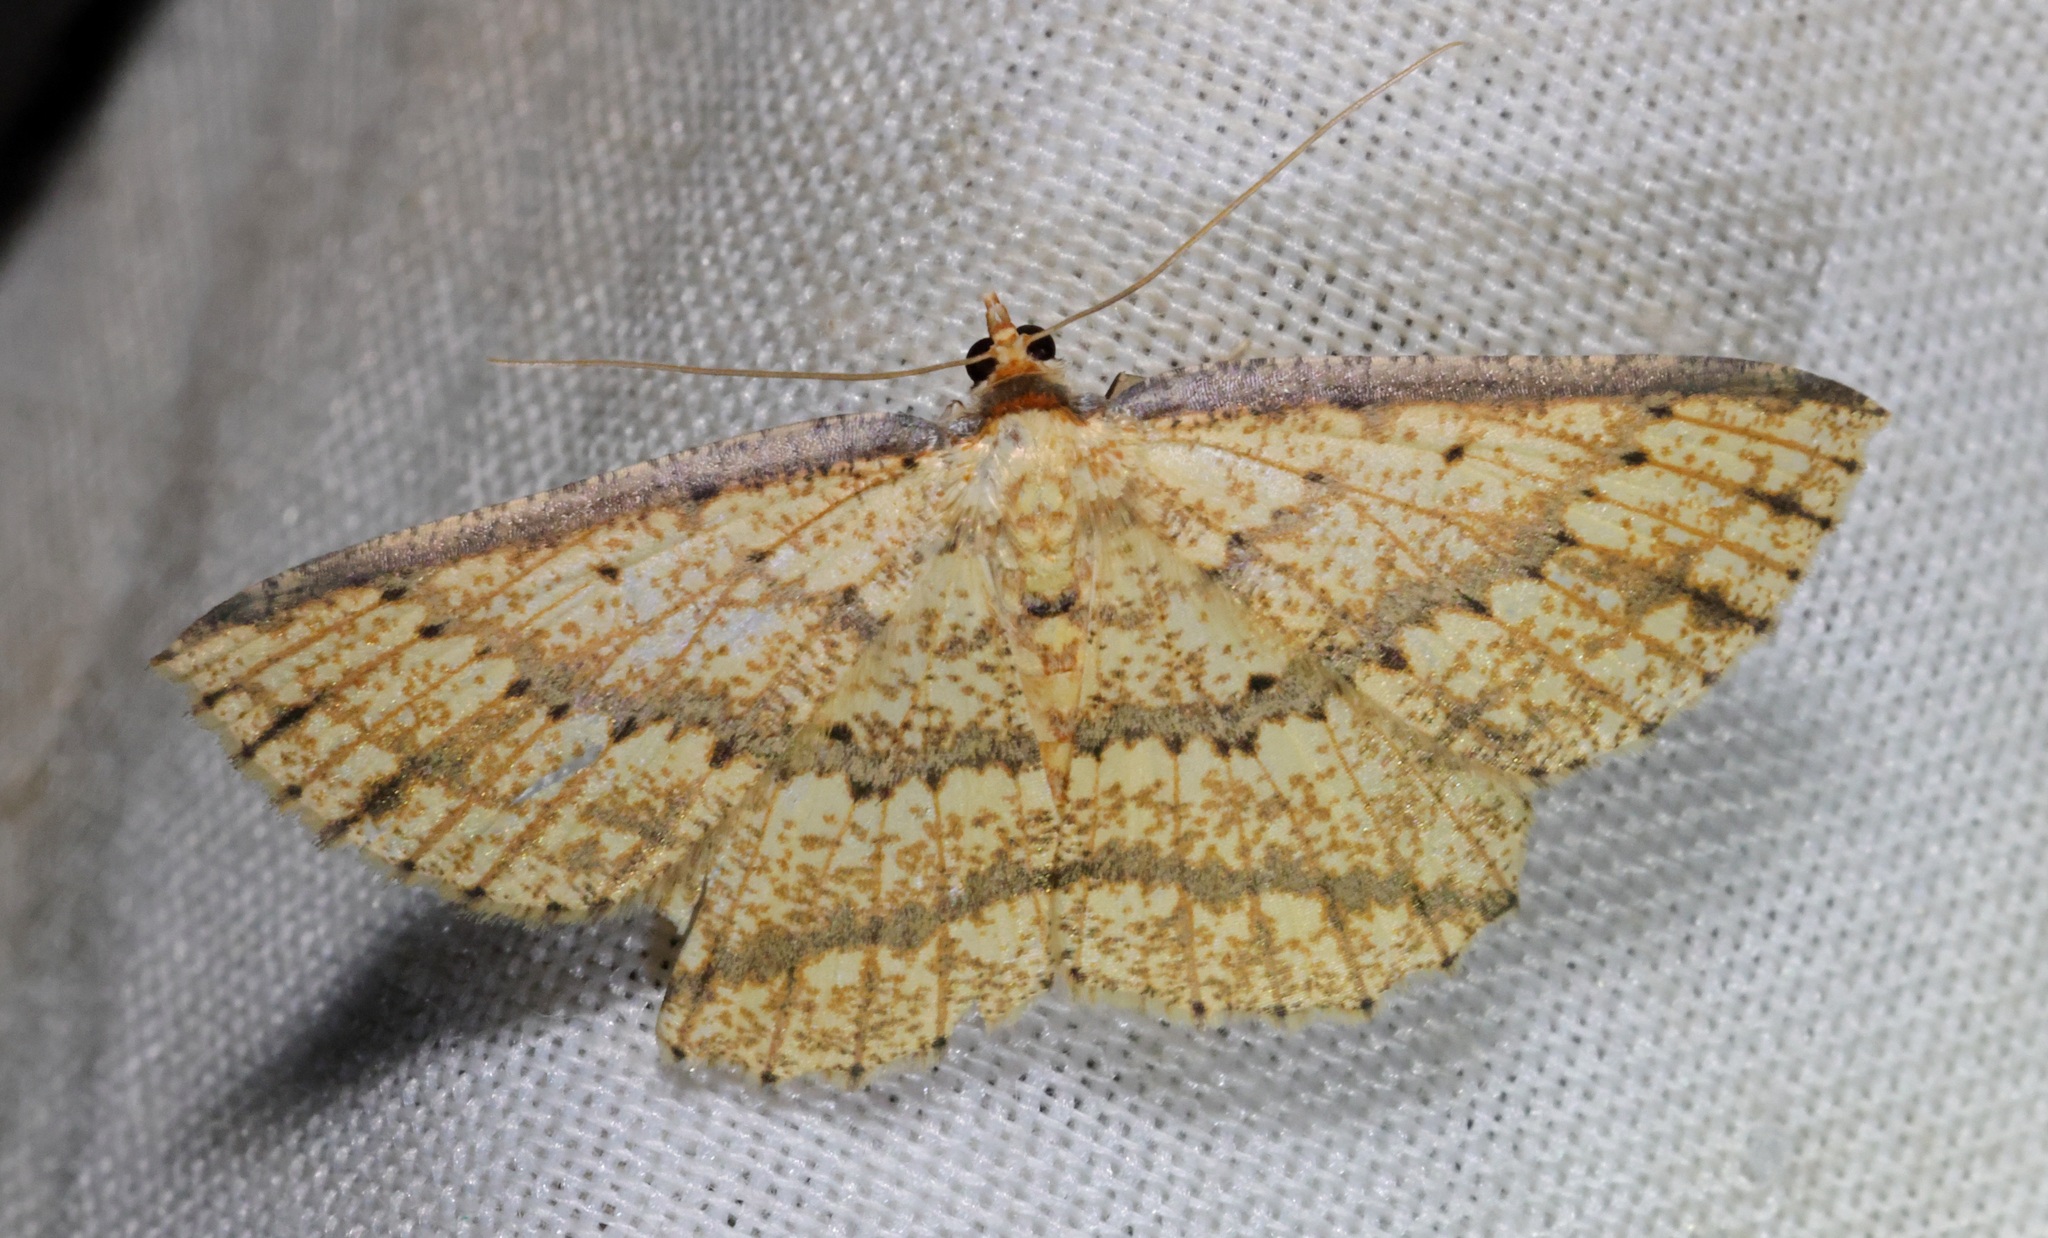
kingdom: Animalia
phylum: Arthropoda
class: Insecta
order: Lepidoptera
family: Geometridae
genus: Synegia
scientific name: Synegia eumeleata
